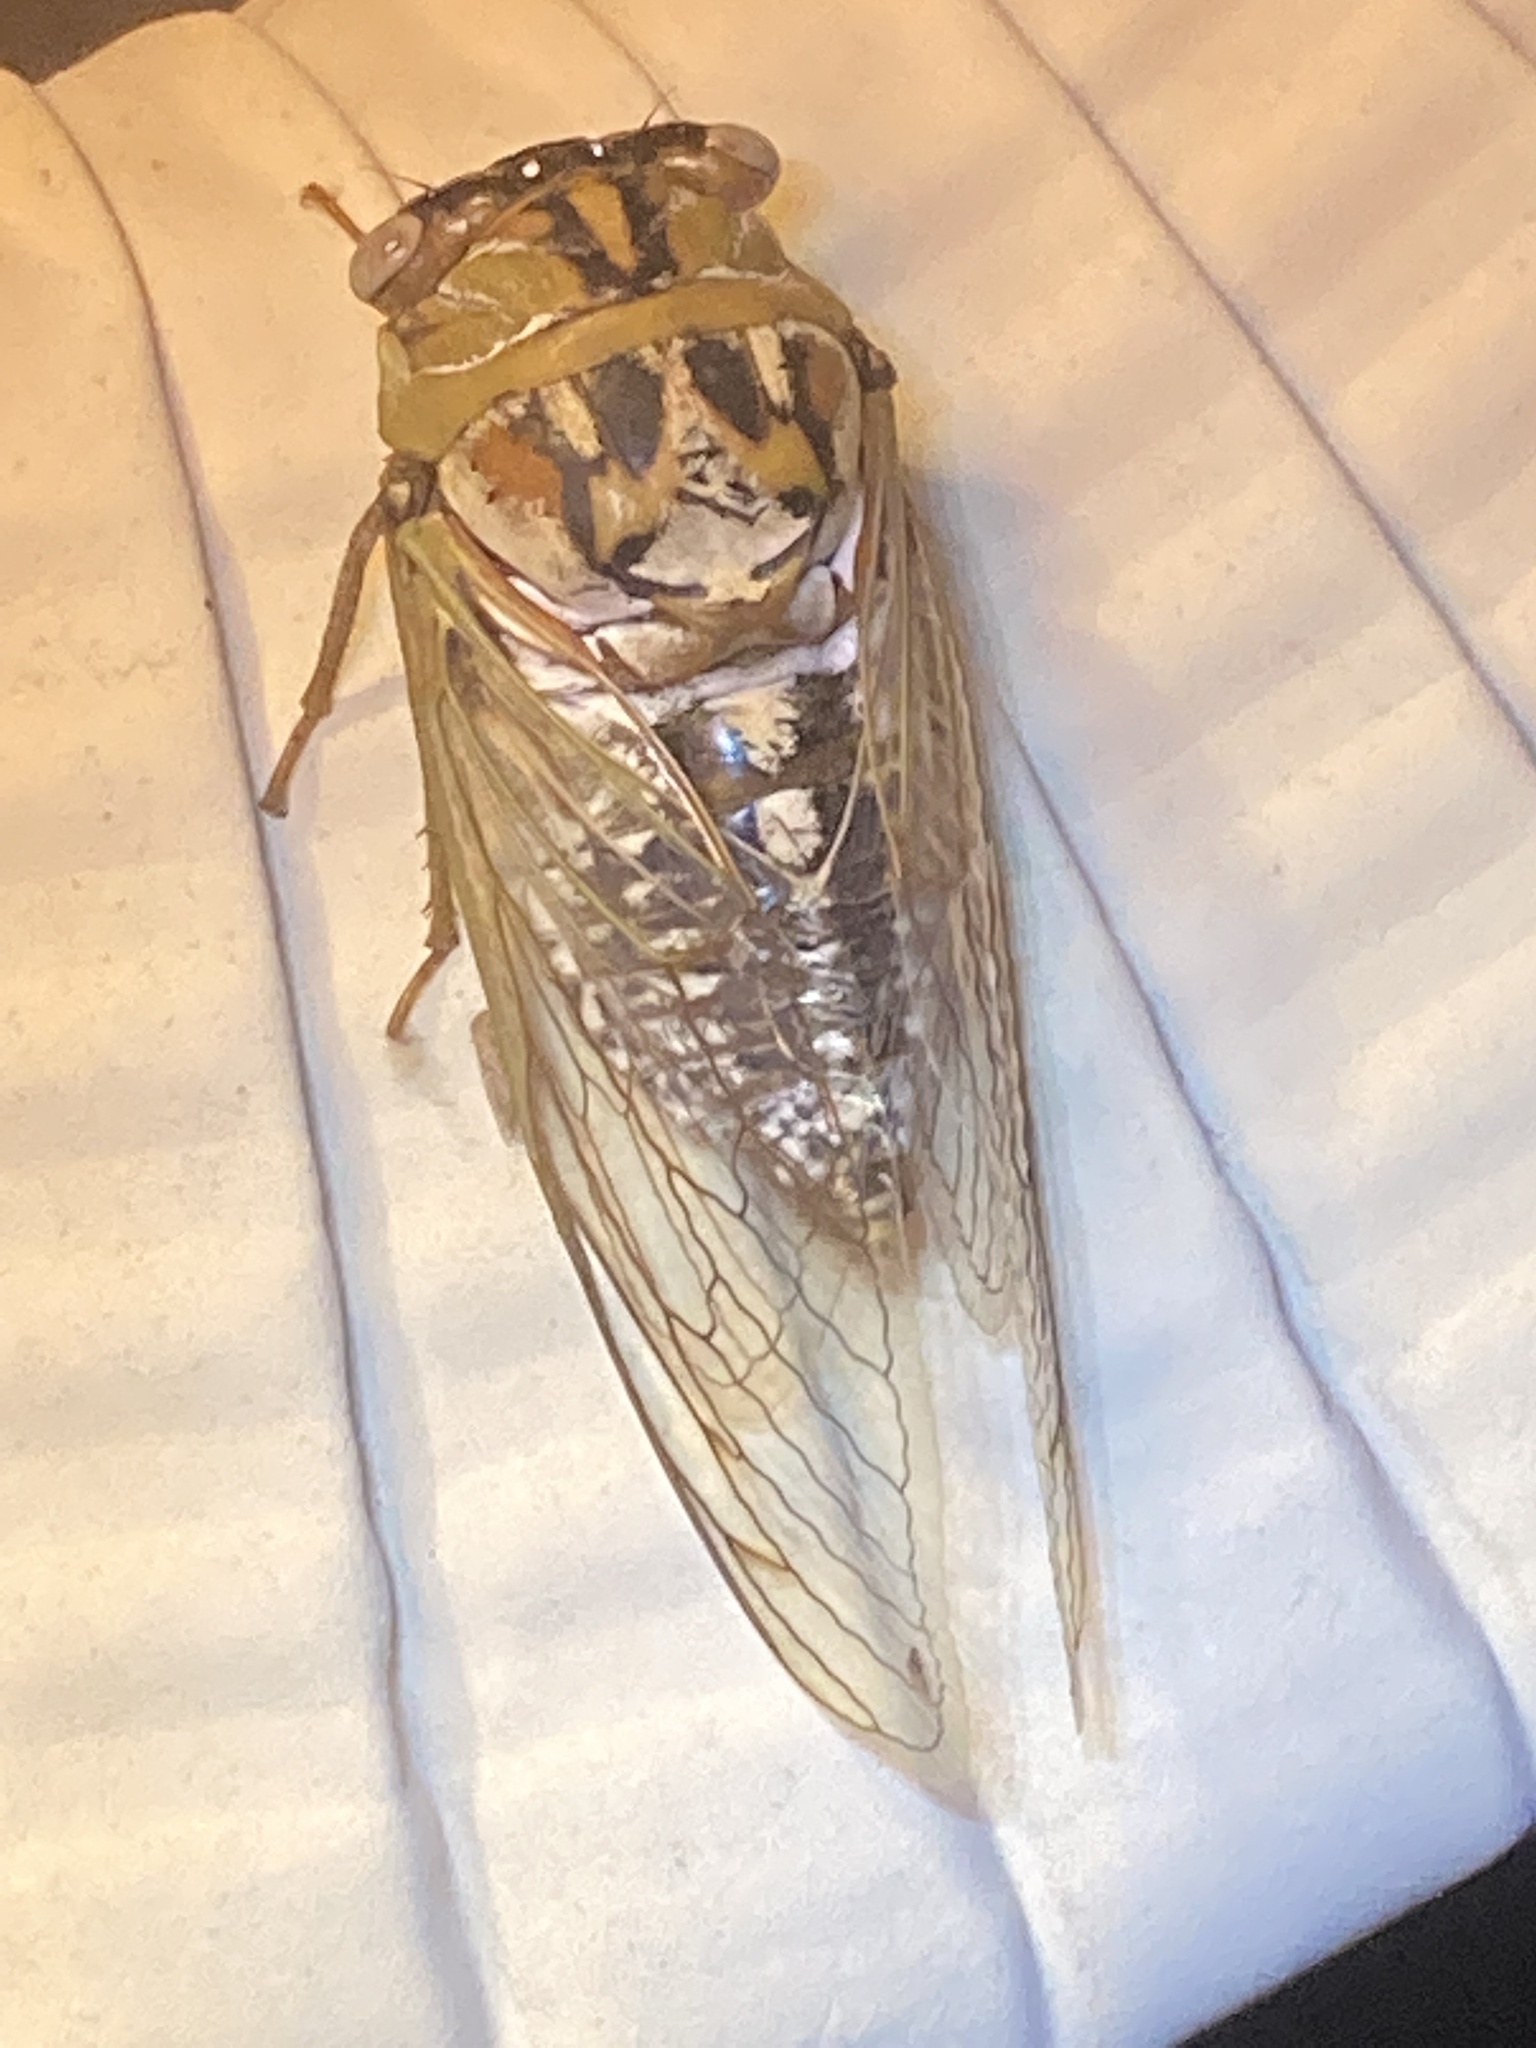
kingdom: Animalia
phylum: Arthropoda
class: Insecta
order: Hemiptera
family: Cicadidae
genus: Megatibicen
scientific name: Megatibicen dealbatus
